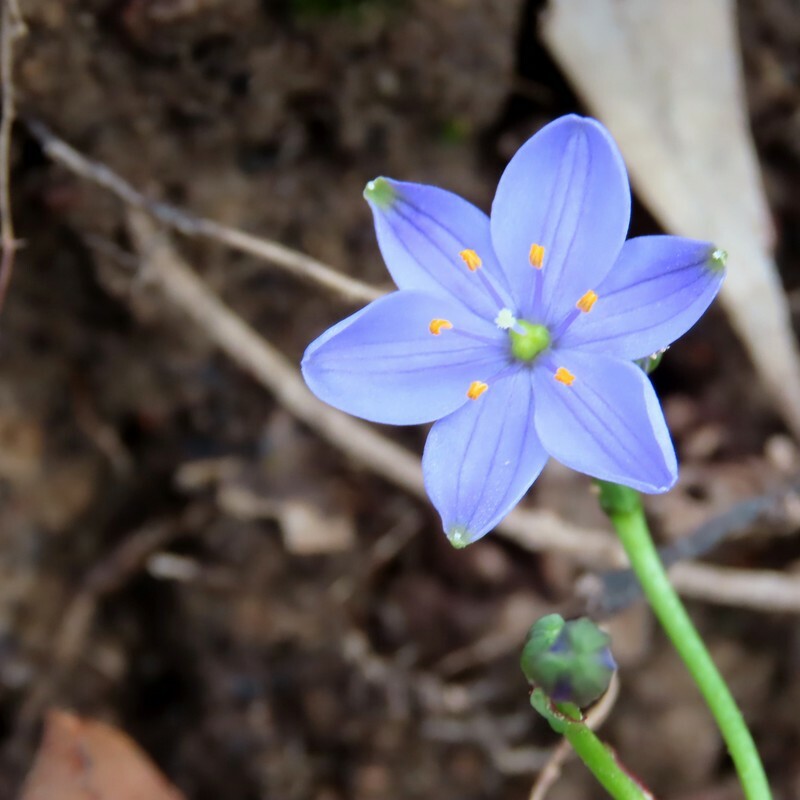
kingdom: Plantae
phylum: Tracheophyta
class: Liliopsida
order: Asparagales
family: Asphodelaceae
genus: Chamaescilla
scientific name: Chamaescilla corymbosa
